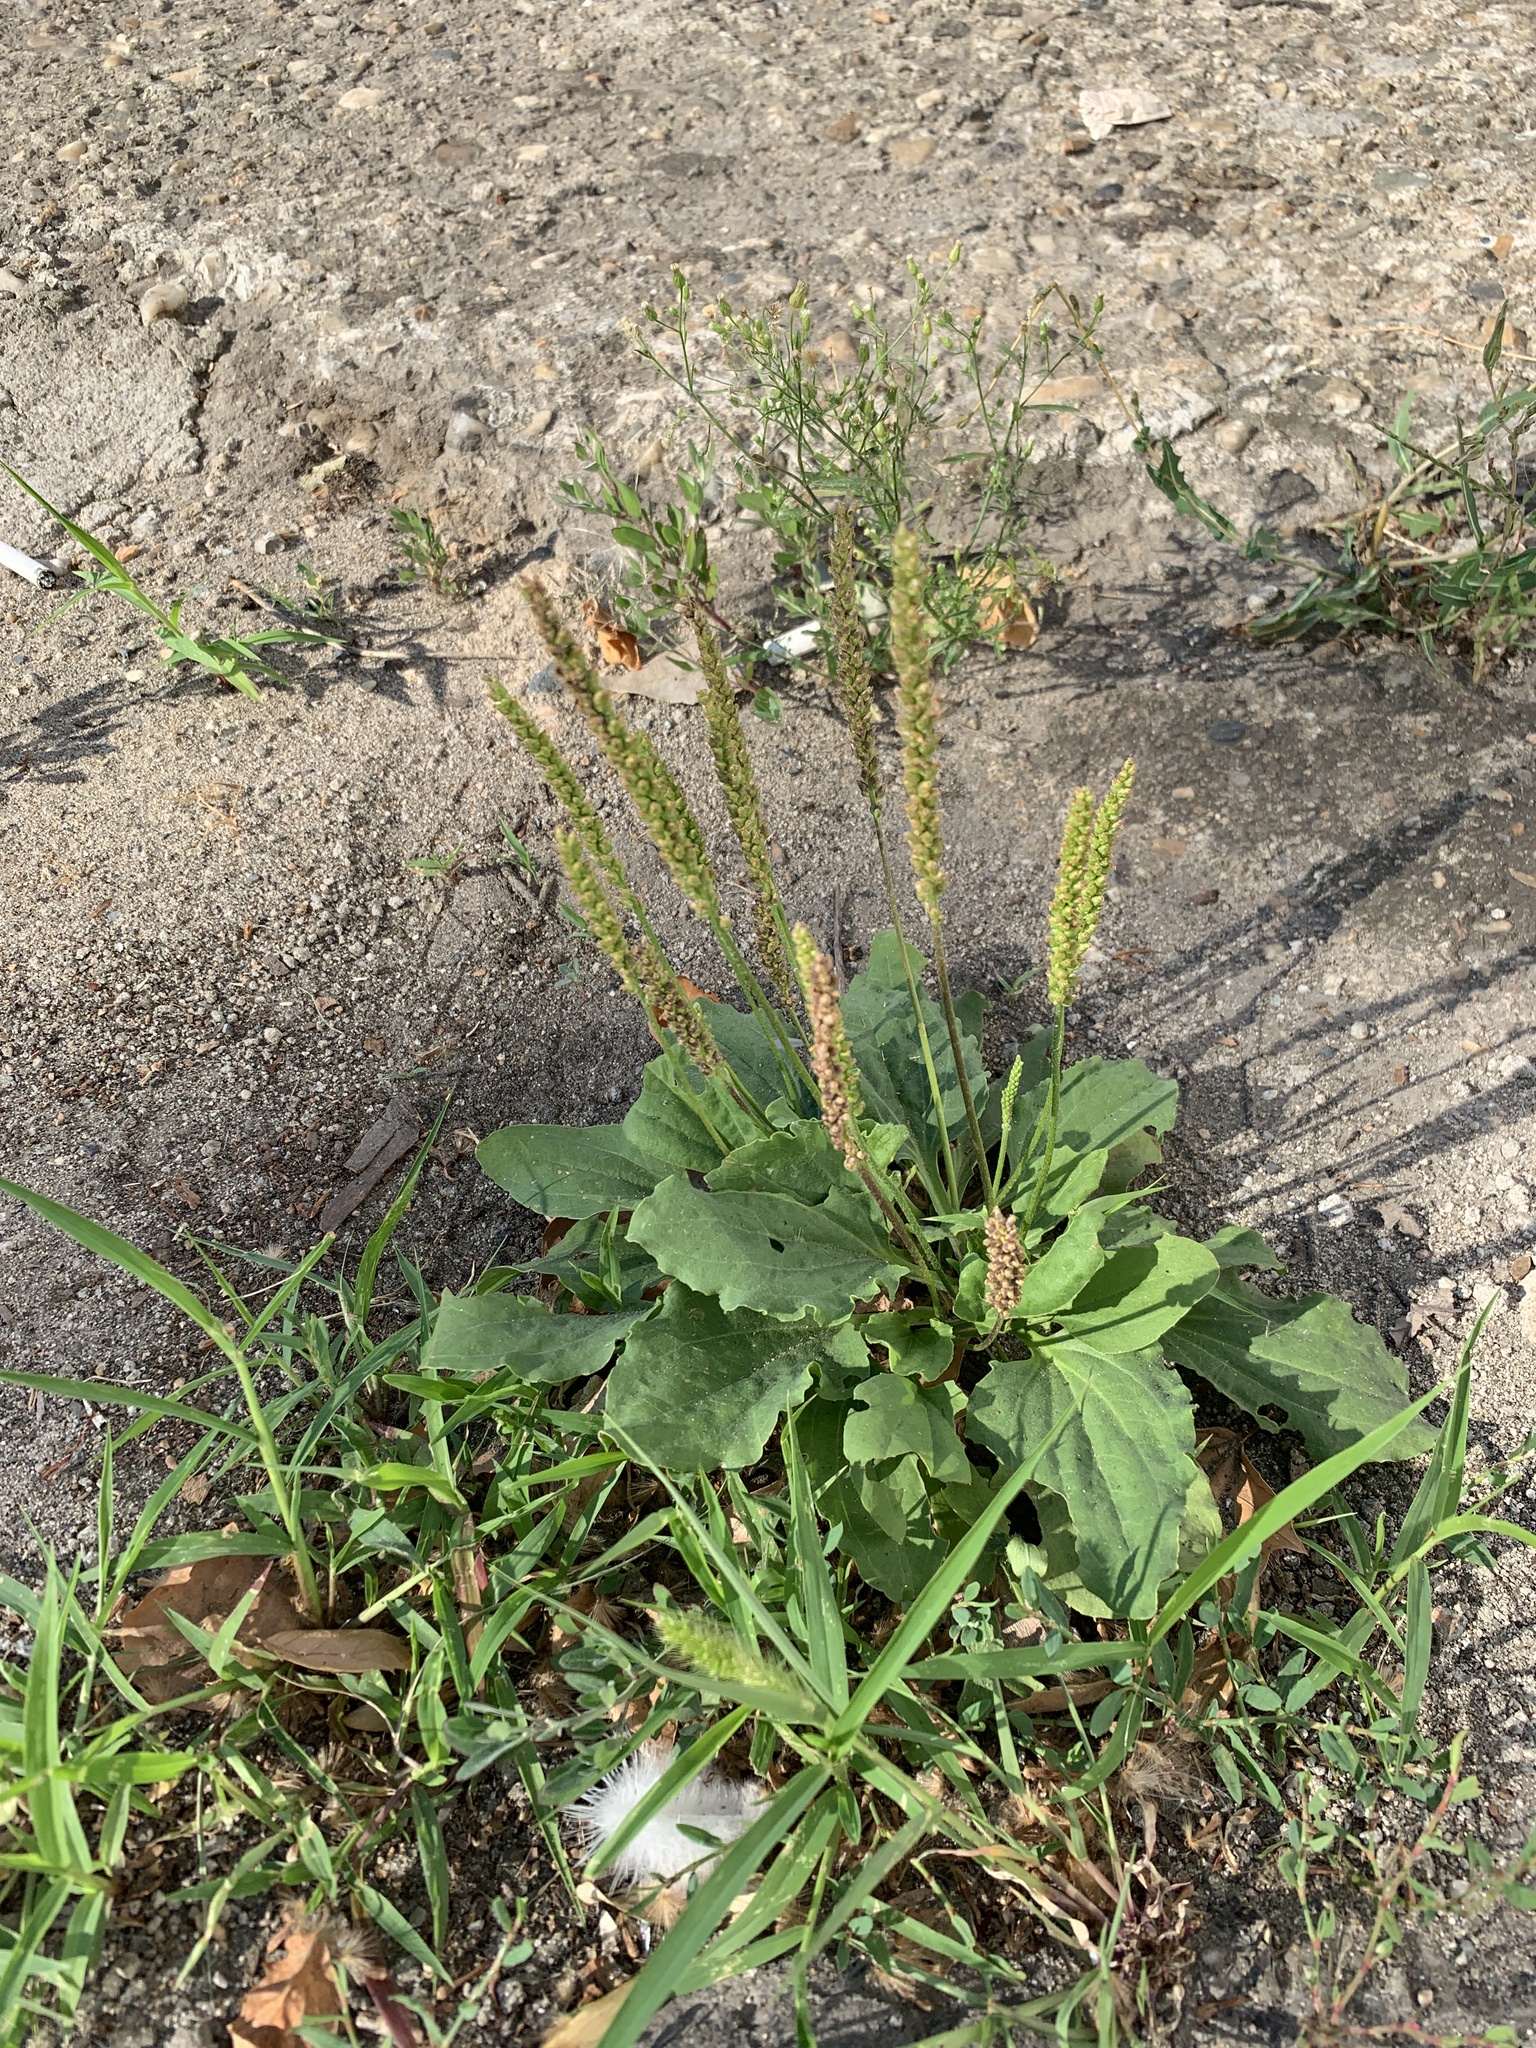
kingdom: Plantae
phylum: Tracheophyta
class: Magnoliopsida
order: Lamiales
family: Plantaginaceae
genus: Plantago
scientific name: Plantago major
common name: Common plantain
